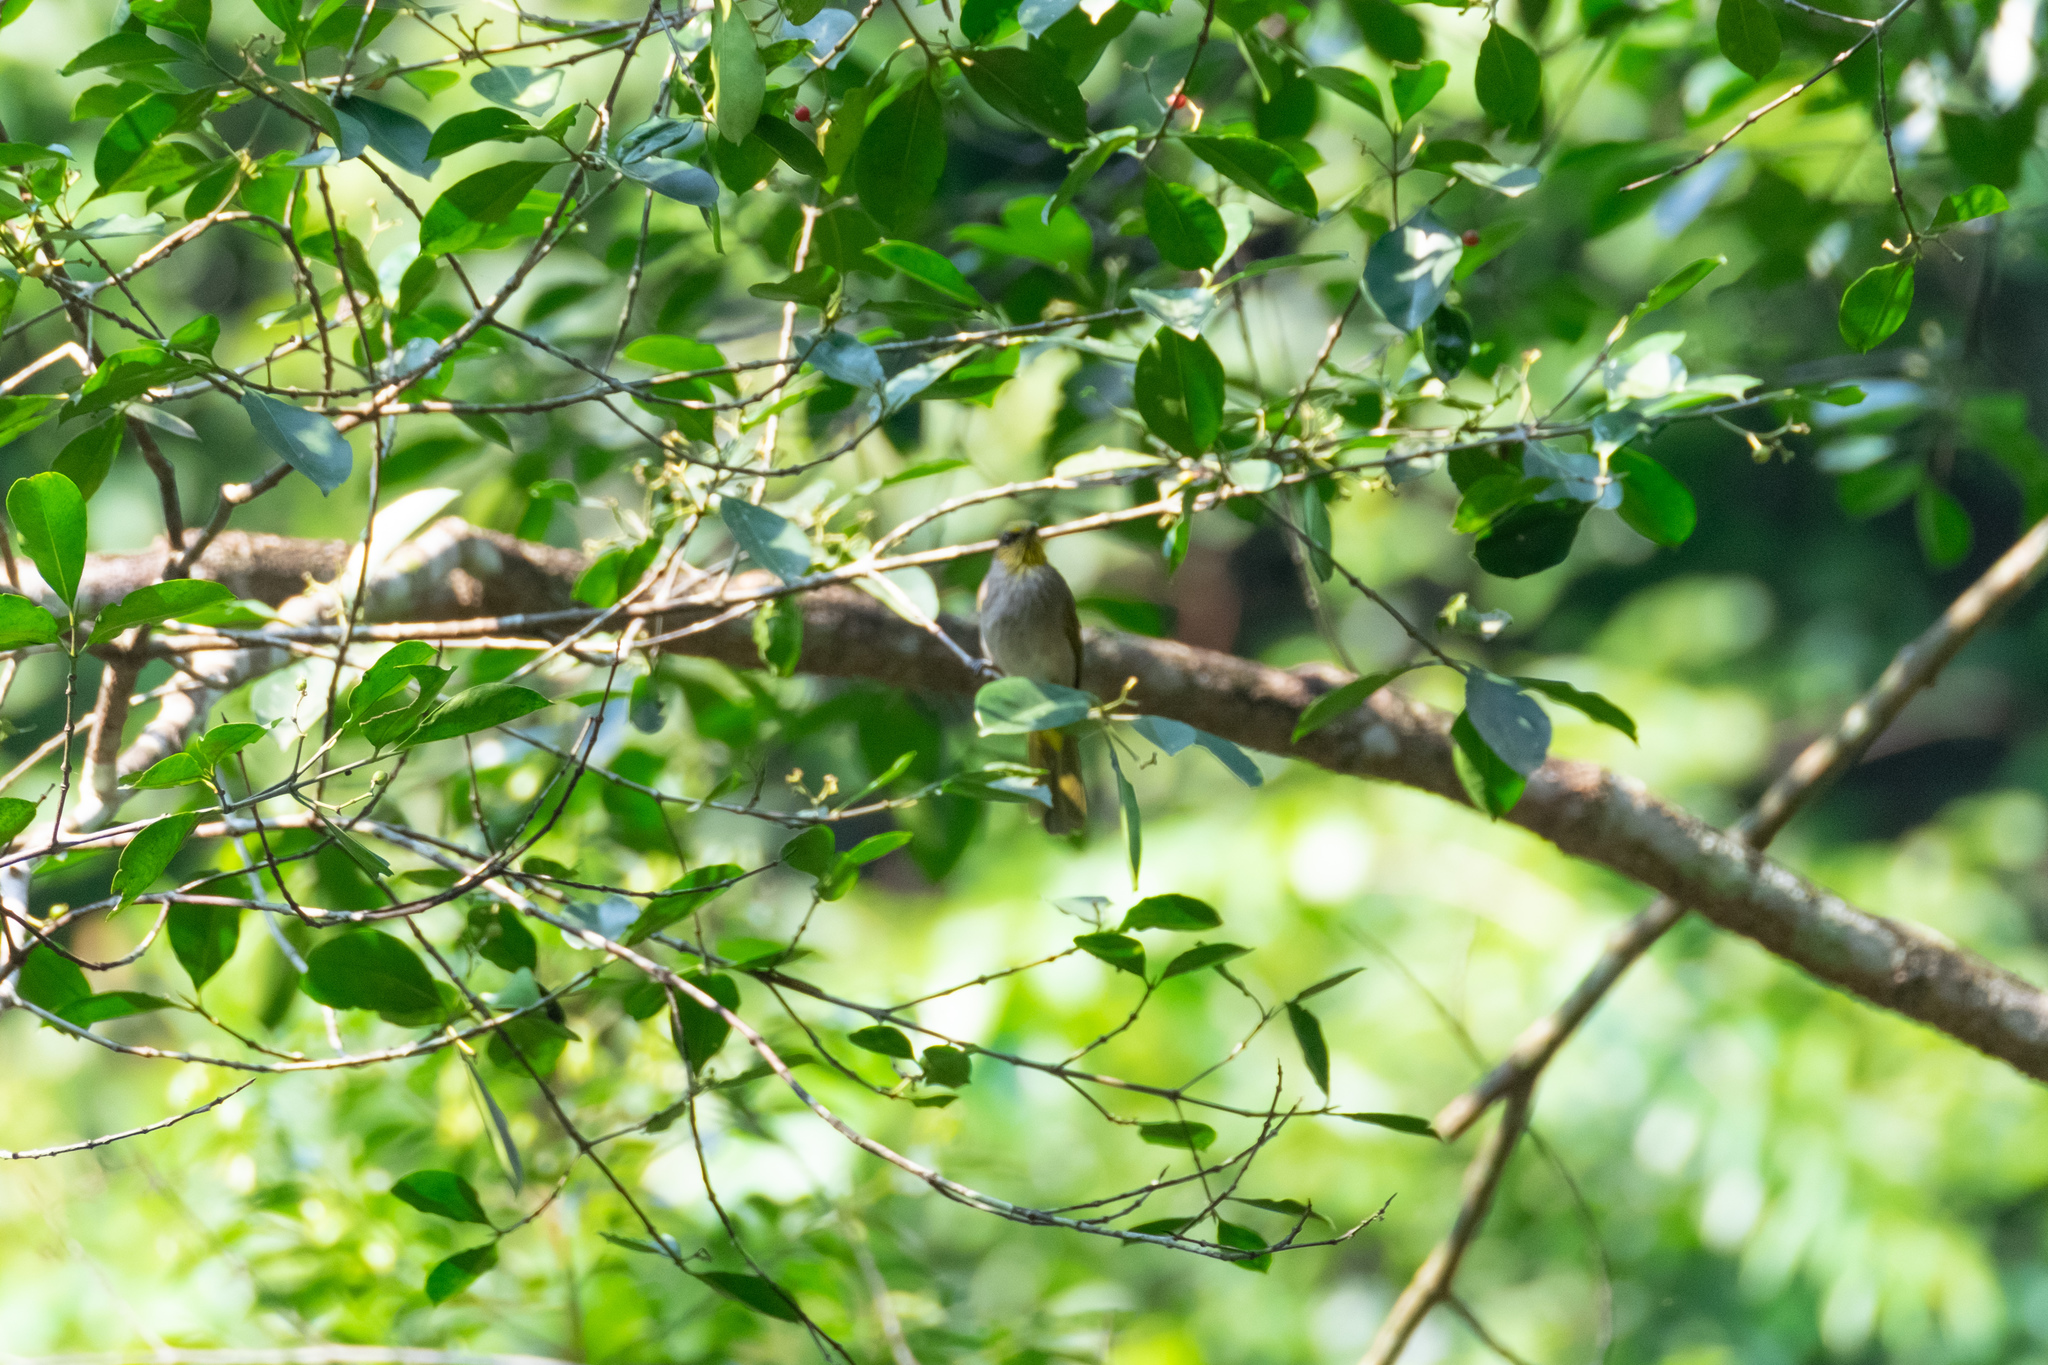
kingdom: Animalia
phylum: Chordata
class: Aves
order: Passeriformes
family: Pycnonotidae
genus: Pycnonotus
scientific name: Pycnonotus finlaysoni
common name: Stripe-throated bulbul
